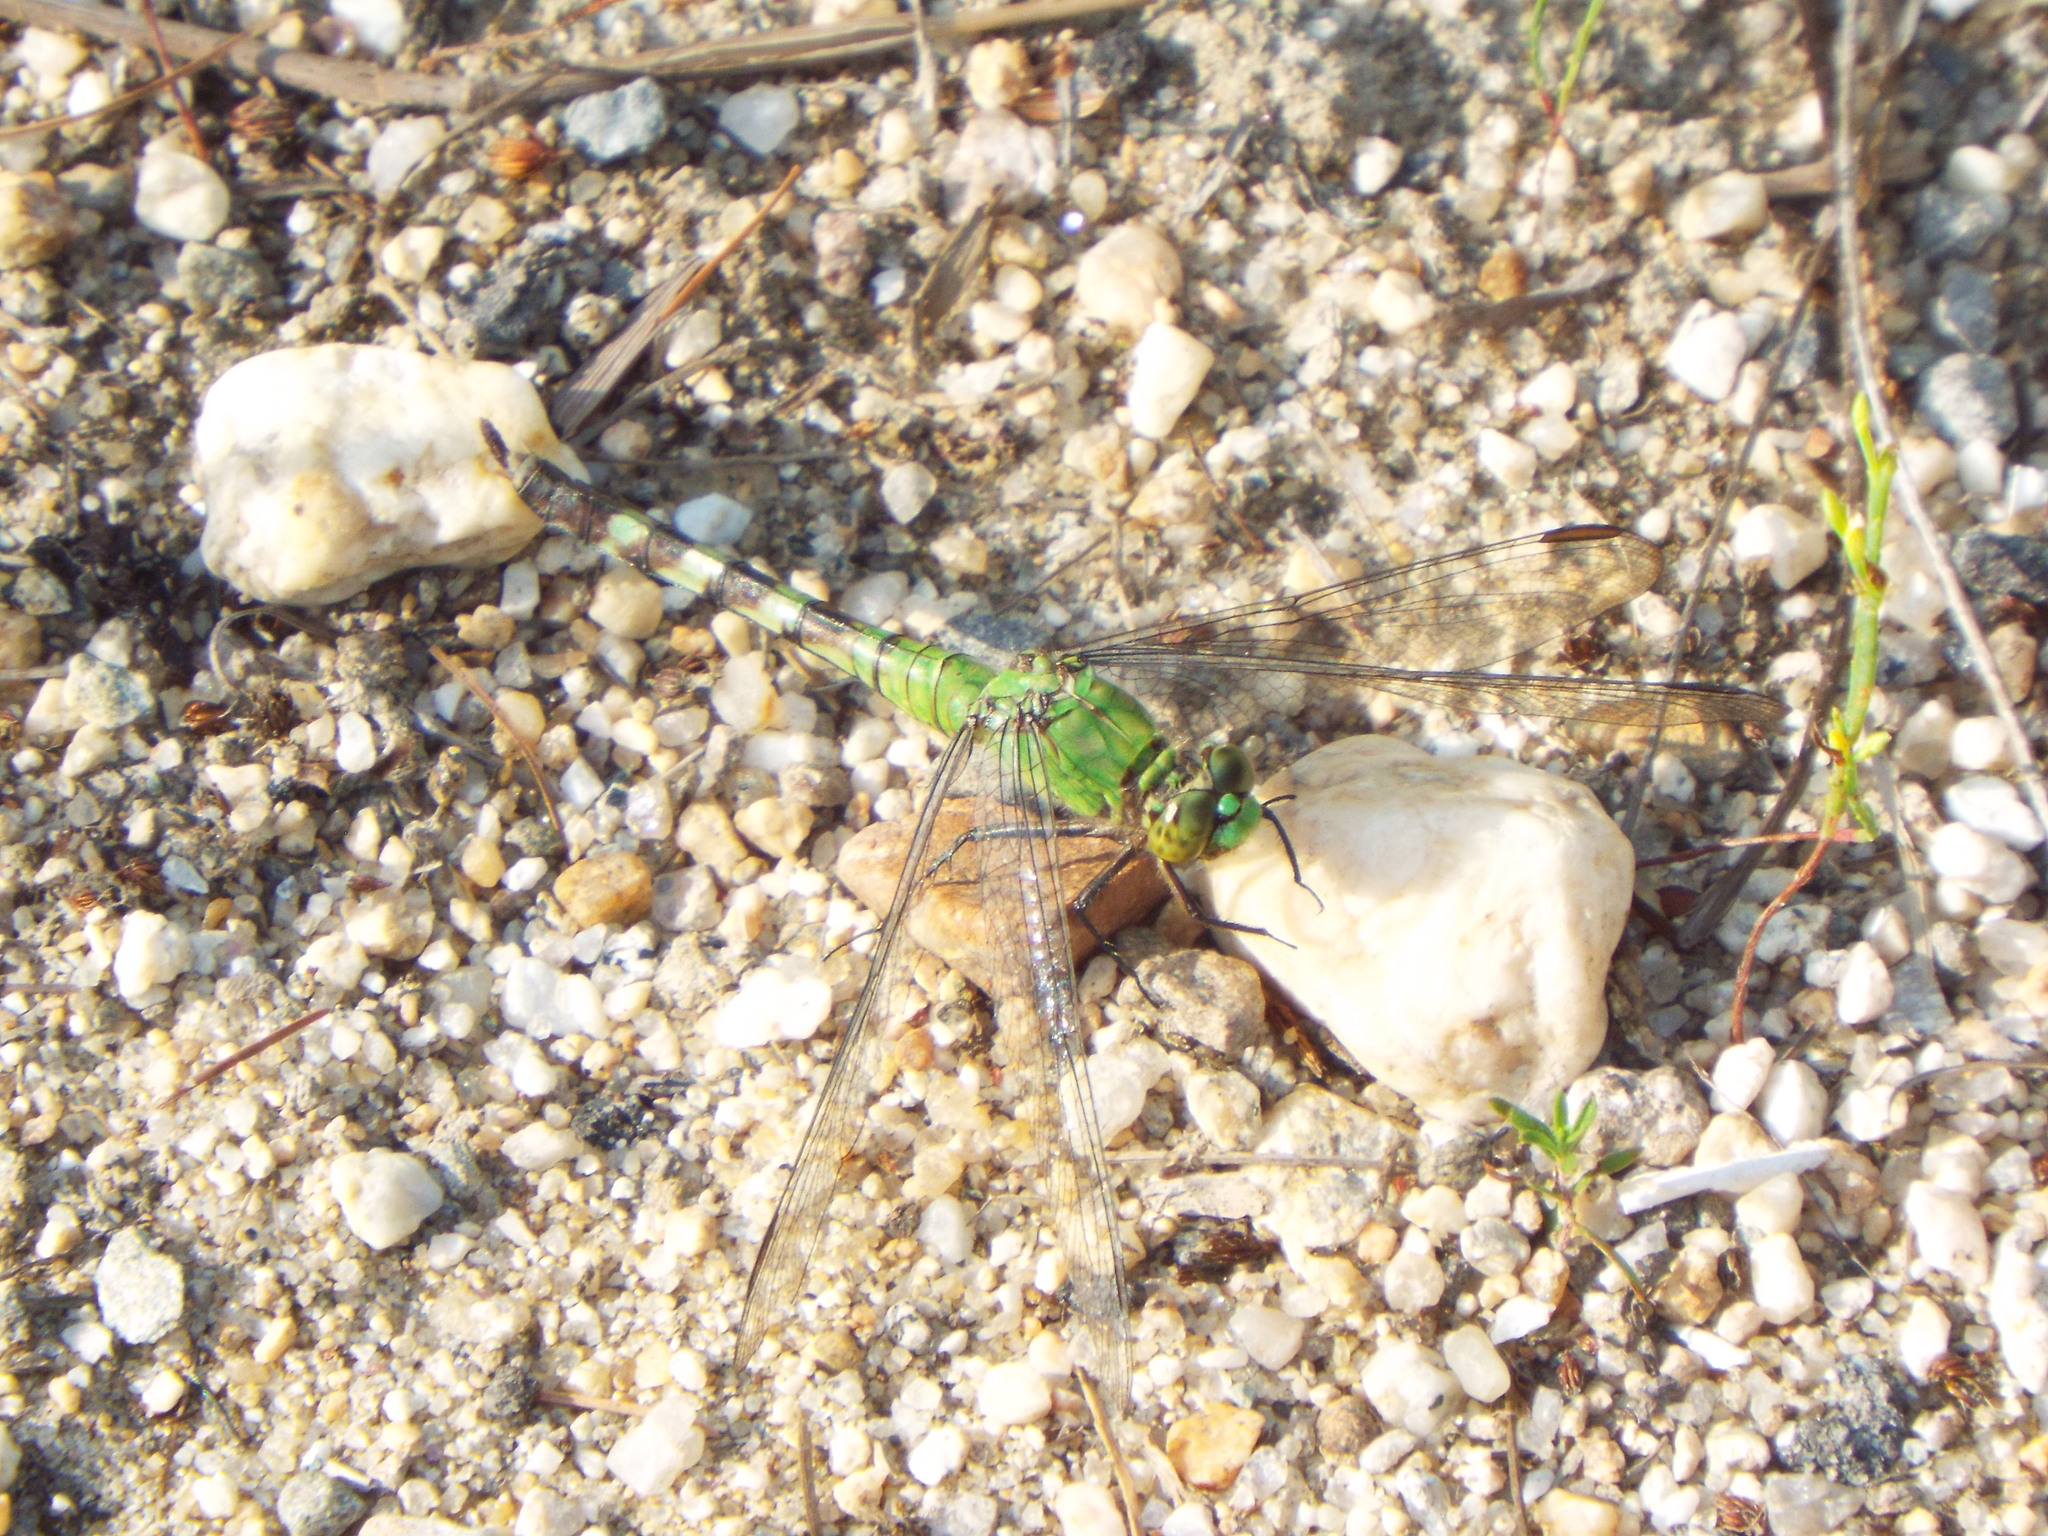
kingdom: Animalia
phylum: Arthropoda
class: Insecta
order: Odonata
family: Libellulidae
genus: Erythemis
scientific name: Erythemis simplicicollis
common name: Eastern pondhawk
